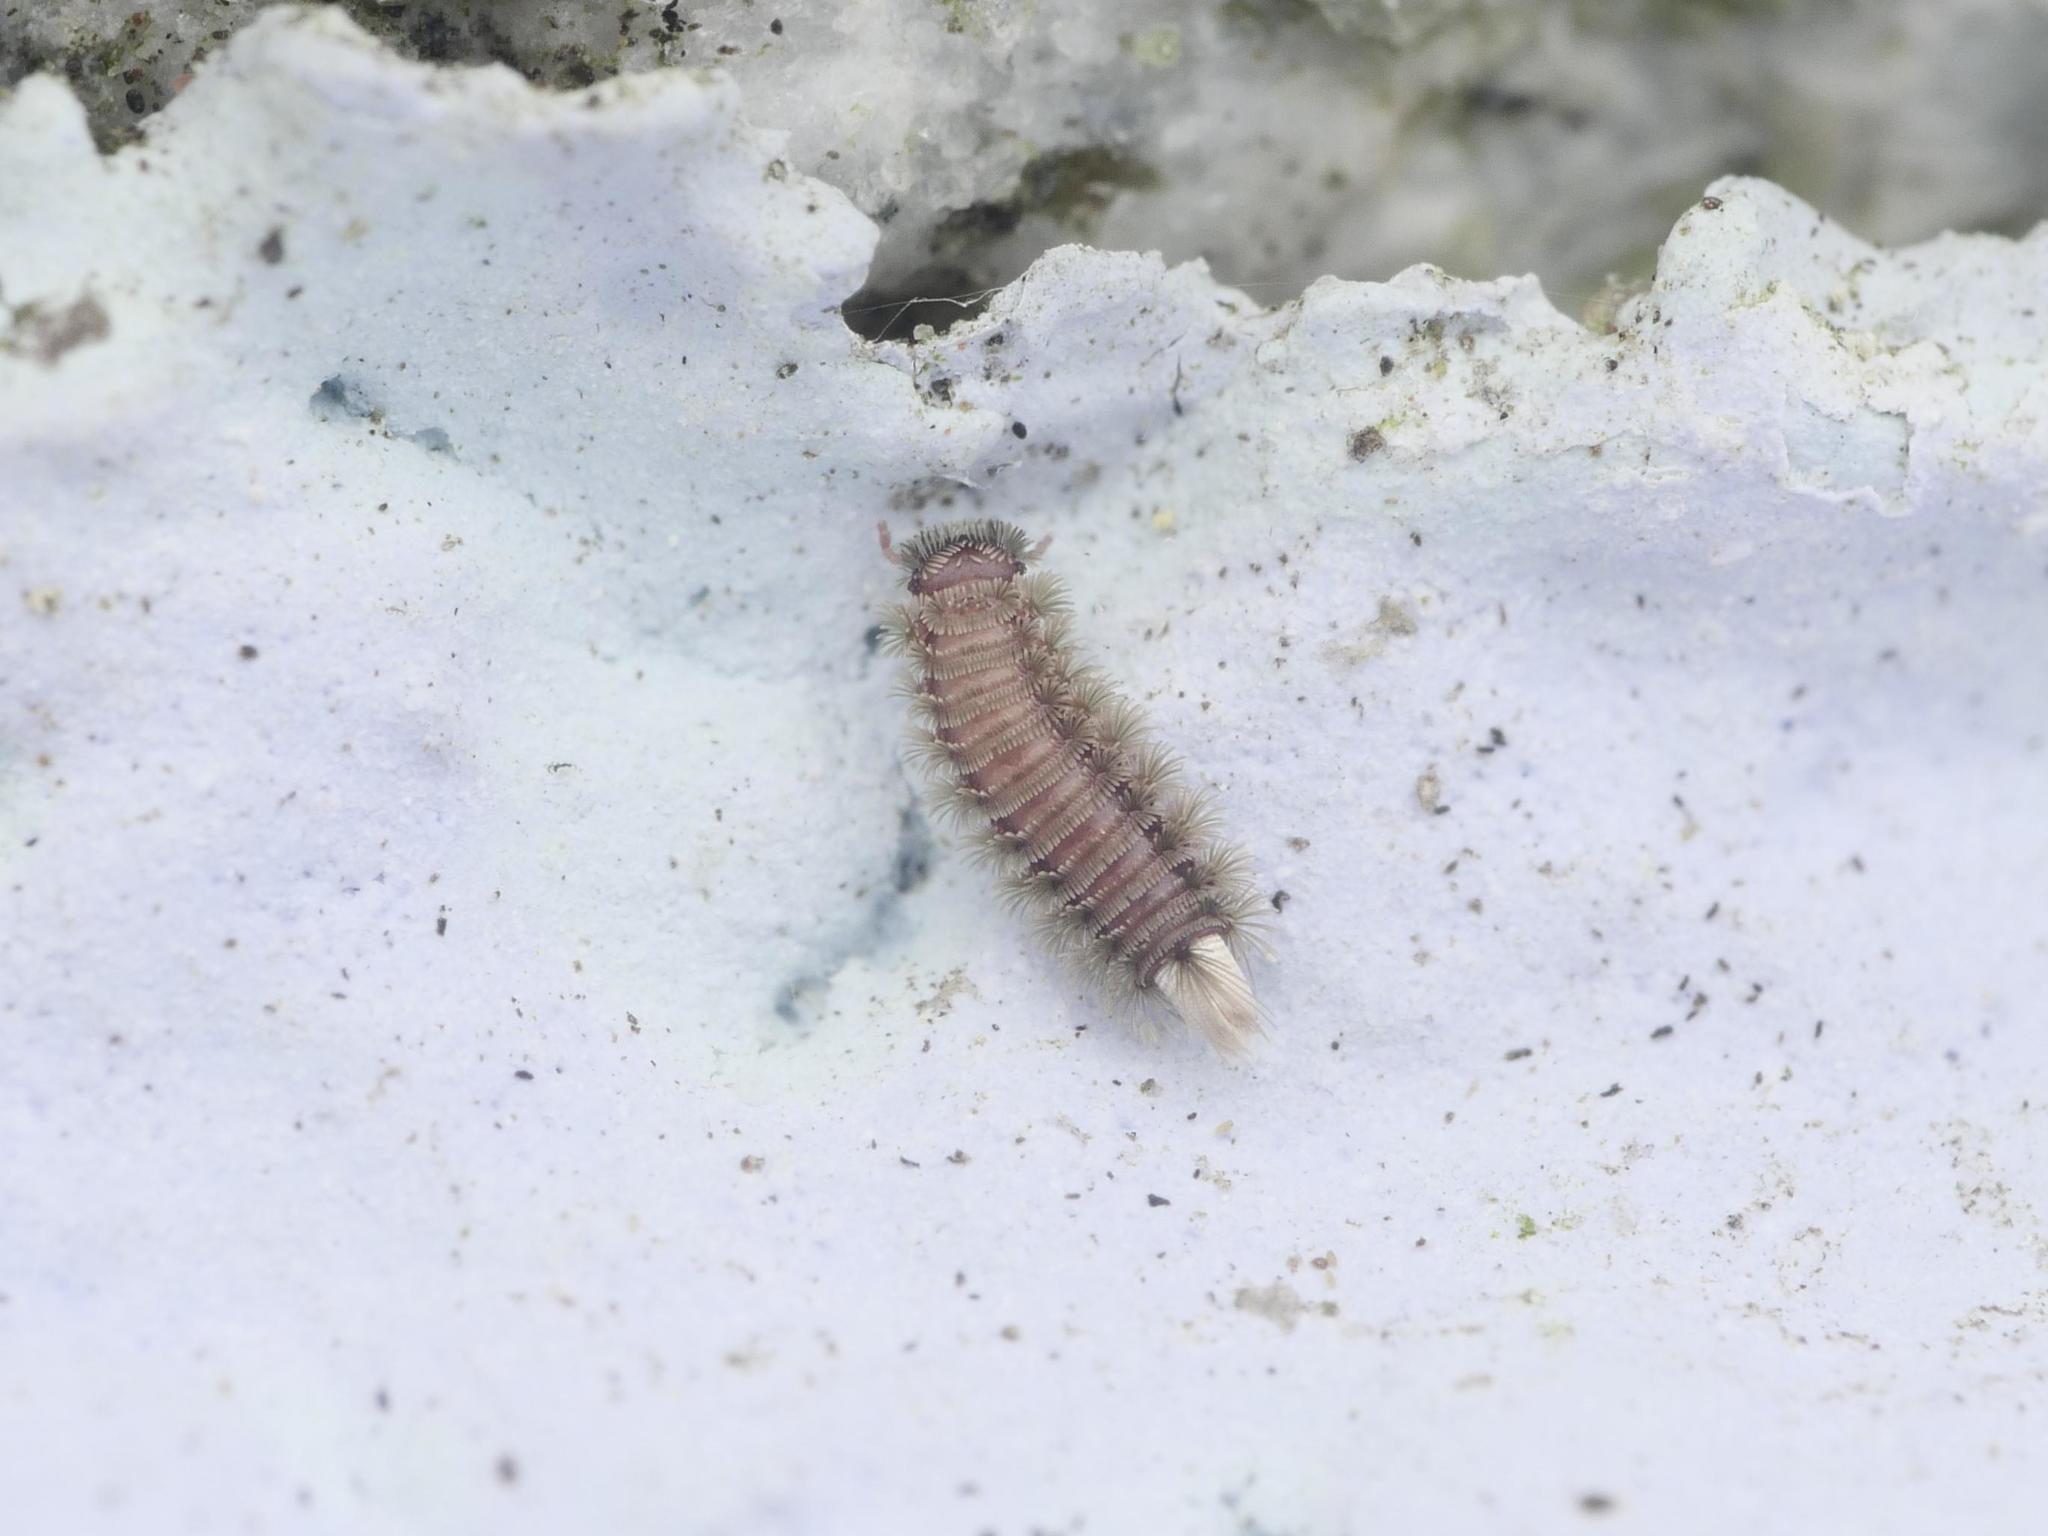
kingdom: Animalia
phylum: Arthropoda
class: Diplopoda
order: Polyxenida
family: Polyxenidae
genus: Polyxenus
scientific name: Polyxenus lagurus
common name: Bristly millipede
